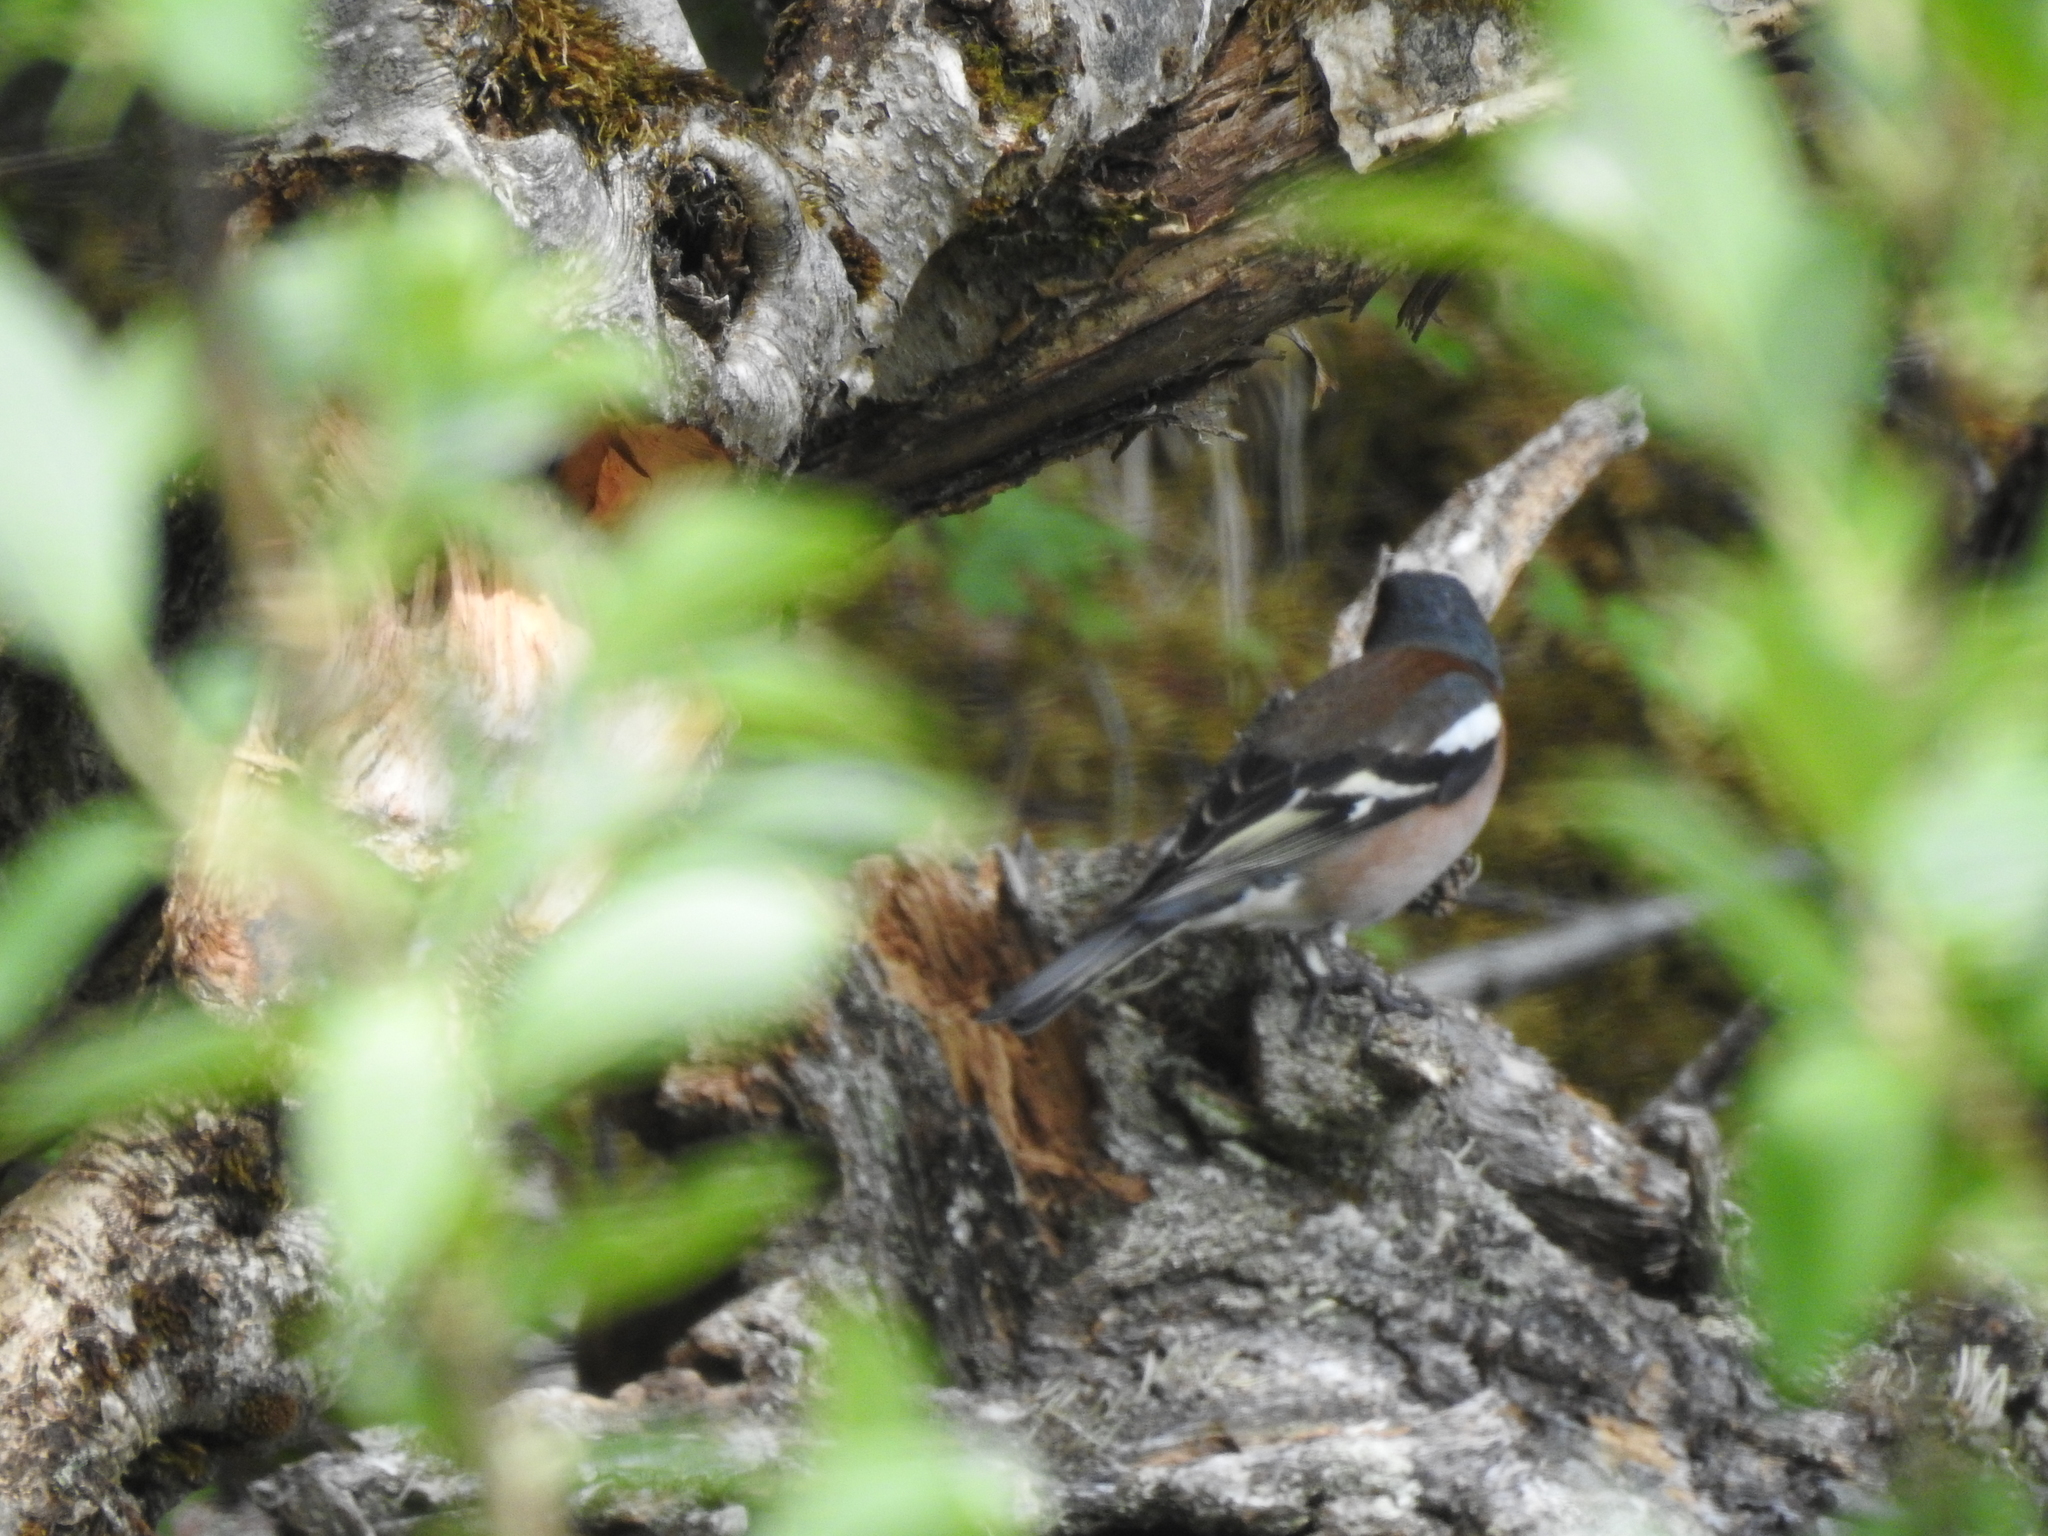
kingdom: Animalia
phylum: Chordata
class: Aves
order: Passeriformes
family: Fringillidae
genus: Fringilla
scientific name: Fringilla coelebs
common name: Common chaffinch
